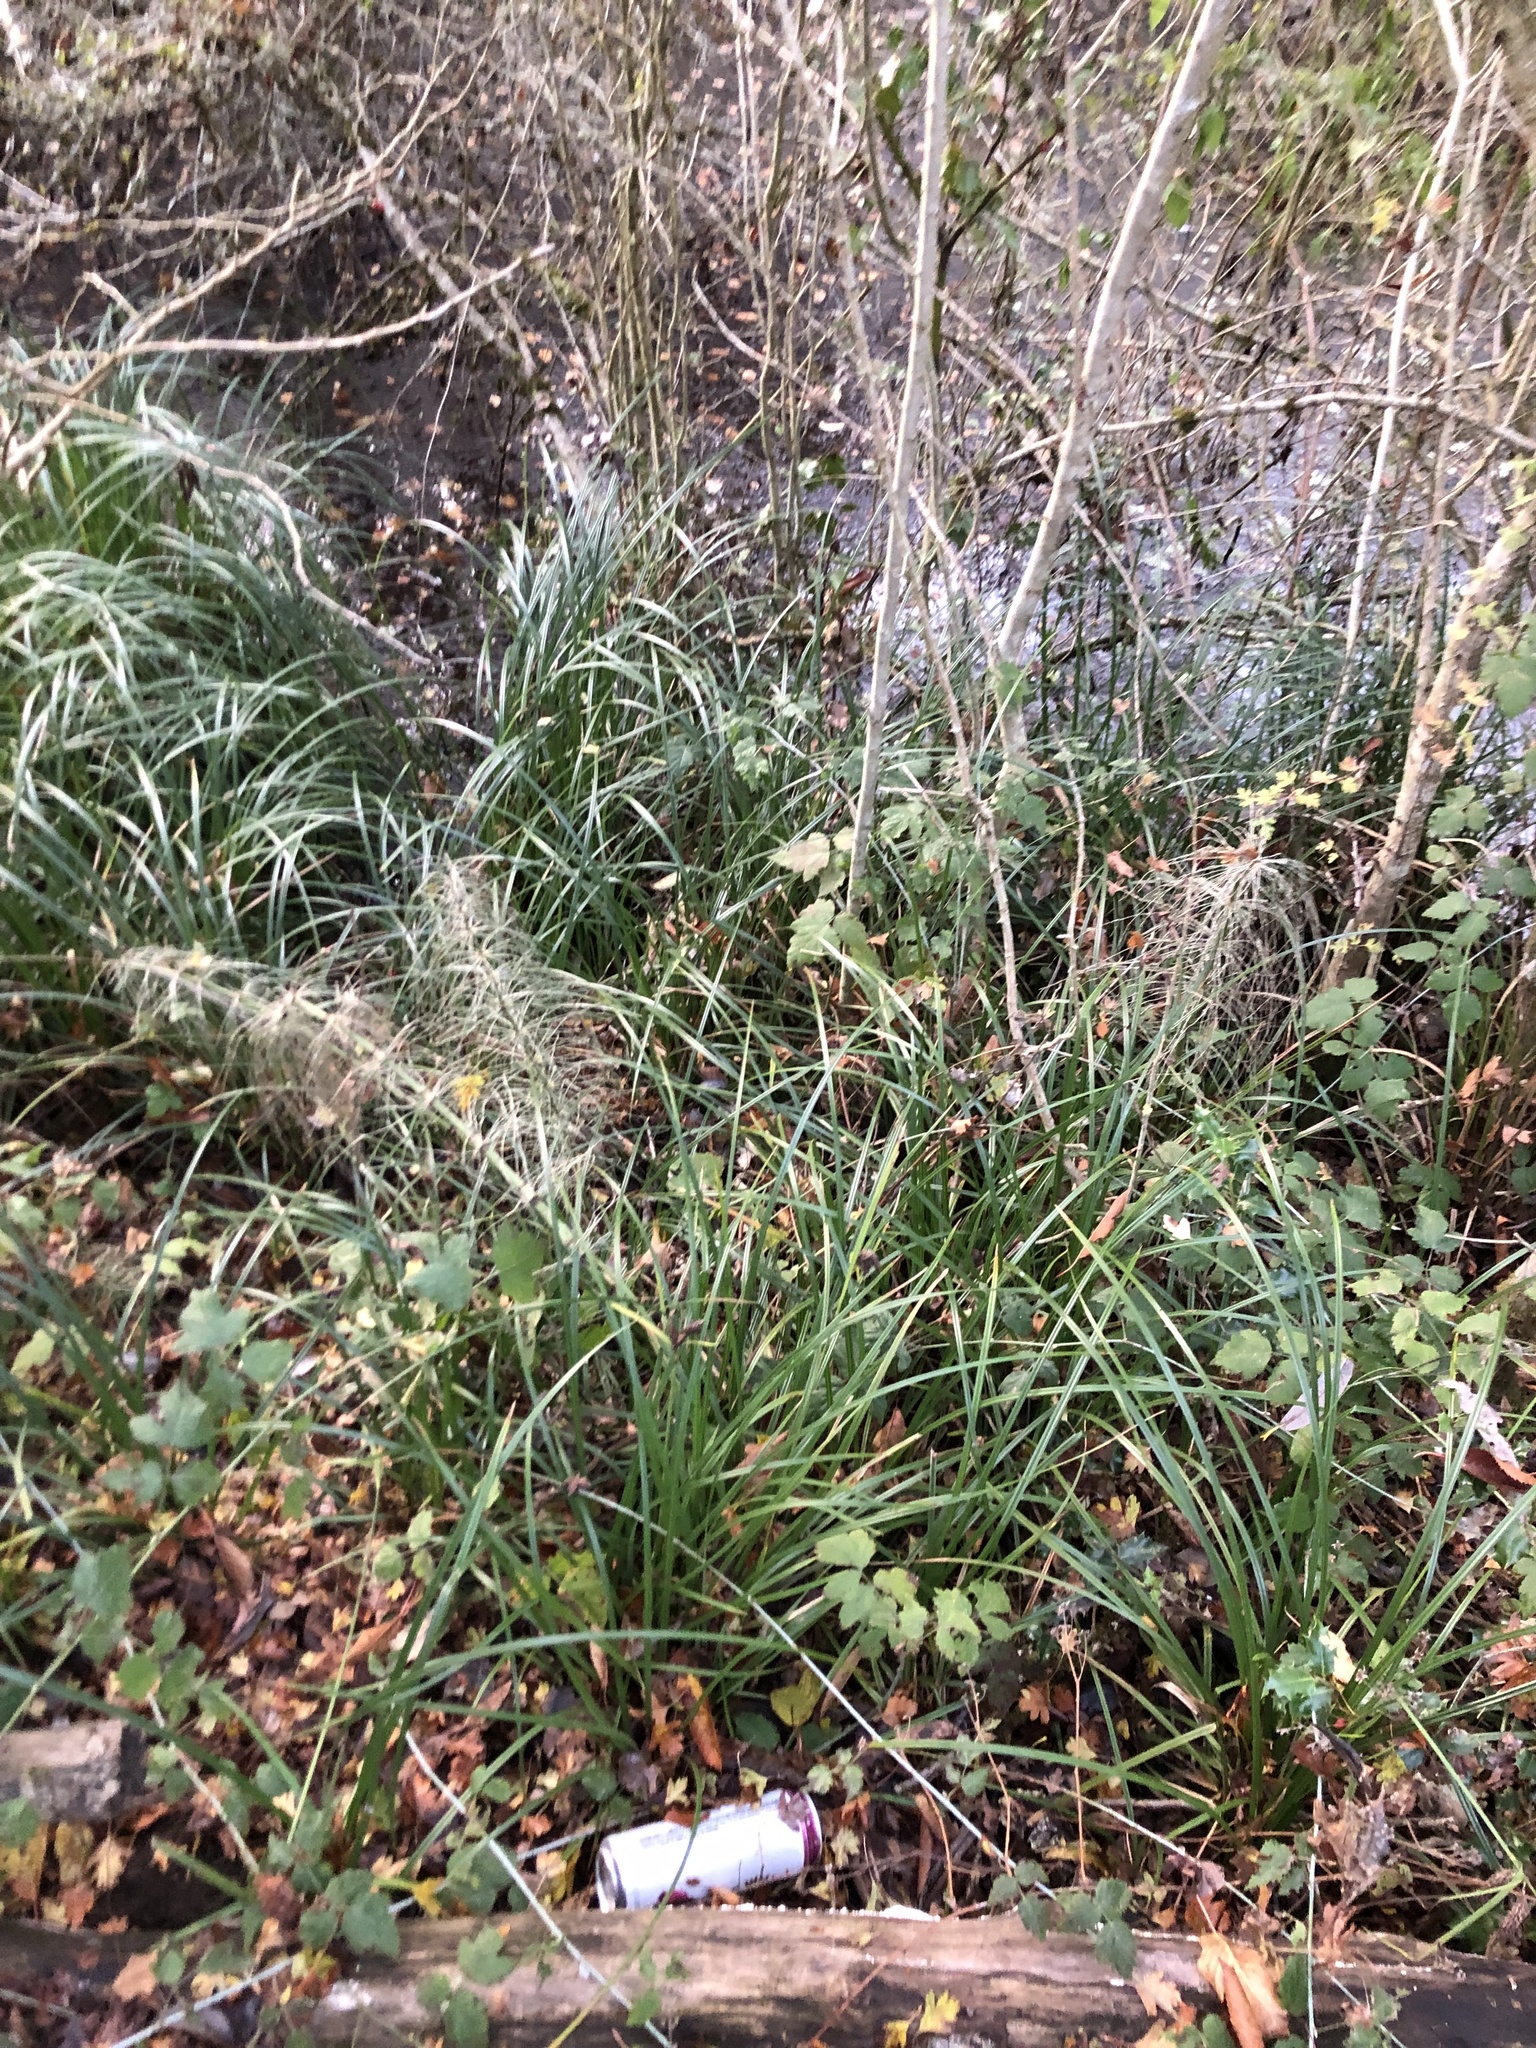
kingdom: Plantae
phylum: Tracheophyta
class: Liliopsida
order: Poales
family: Cyperaceae
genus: Carex
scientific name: Carex obnupta
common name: Slough sedge
